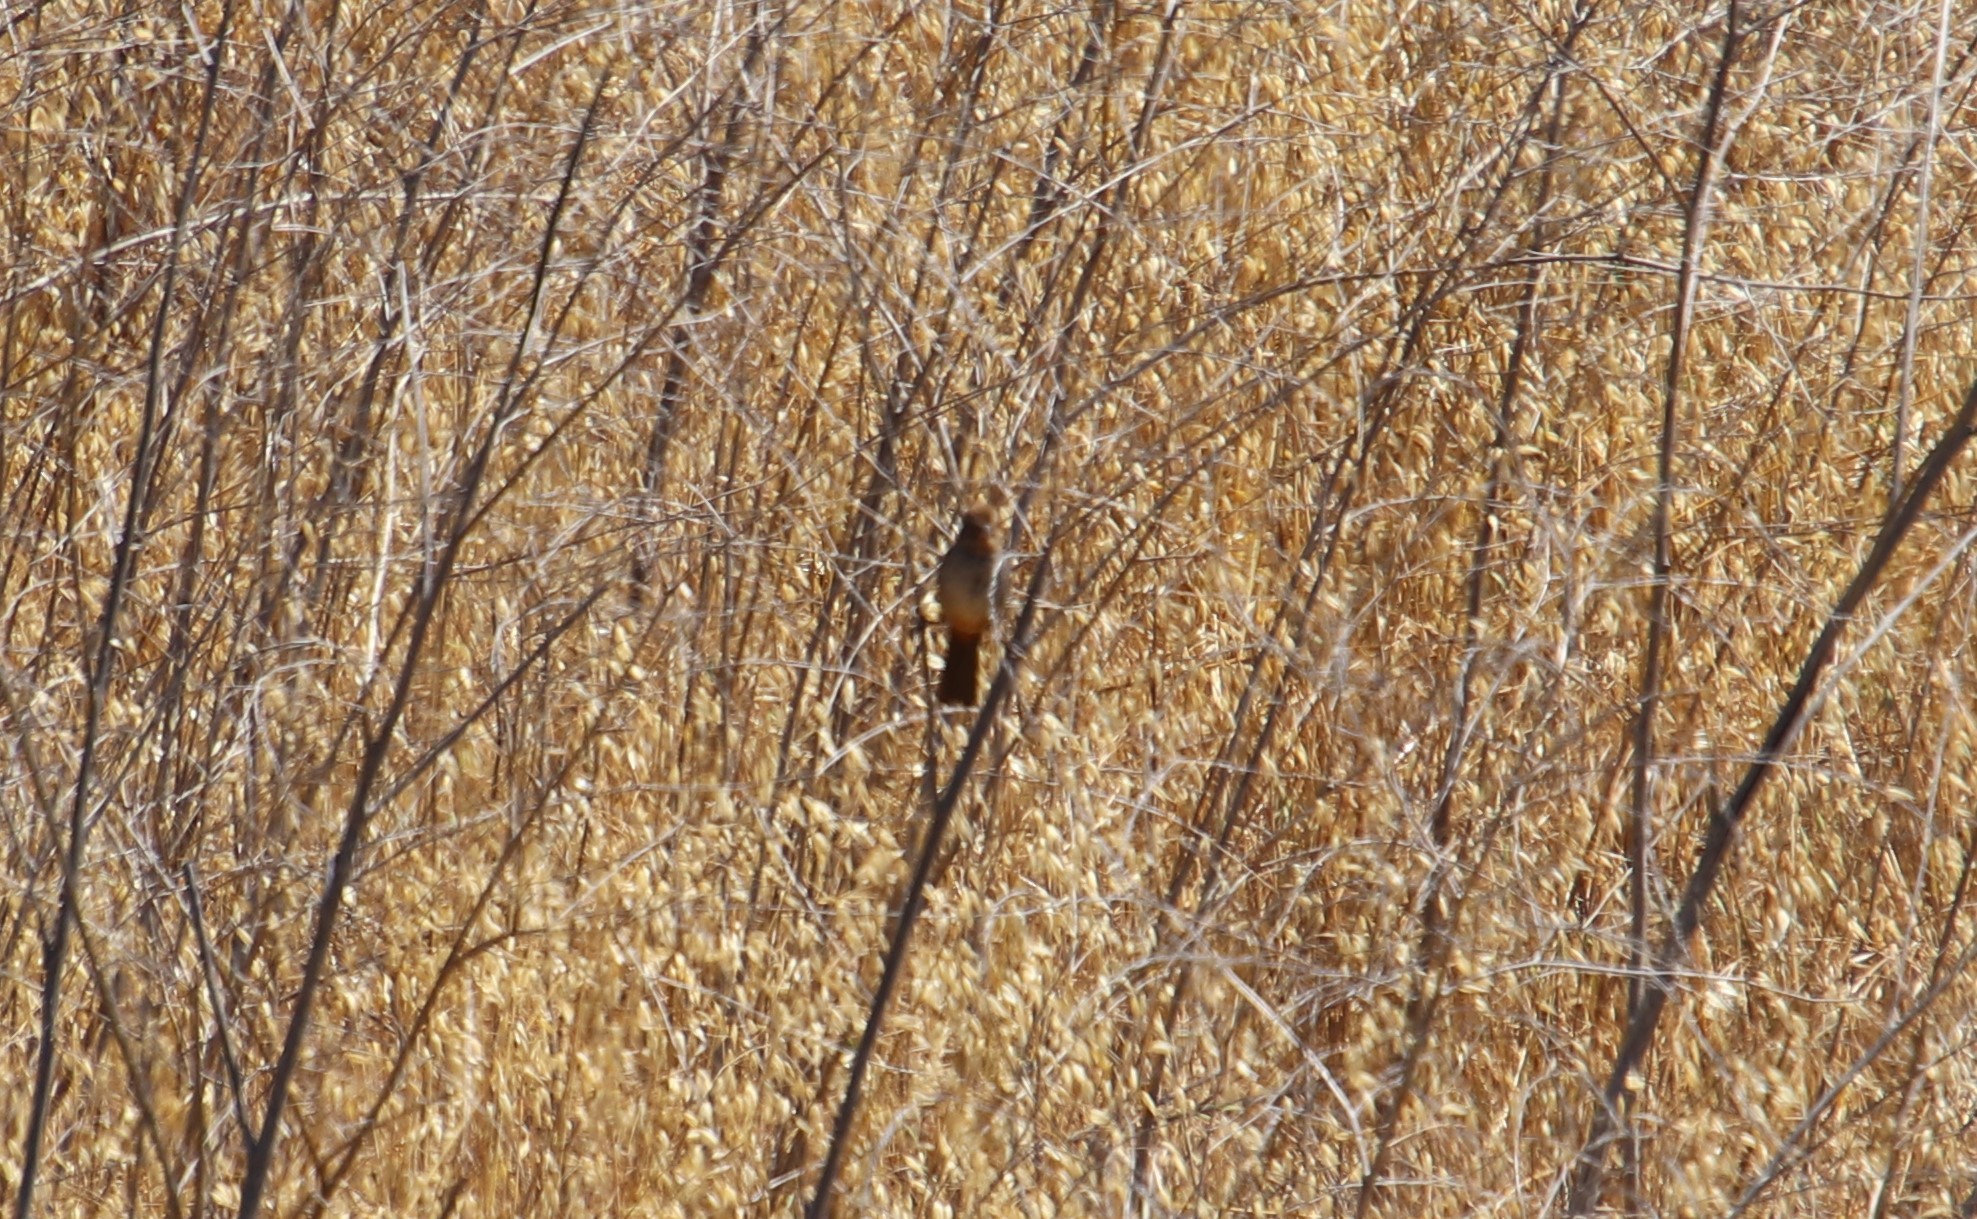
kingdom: Animalia
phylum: Chordata
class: Aves
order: Passeriformes
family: Passerellidae
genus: Melozone
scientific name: Melozone crissalis
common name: California towhee
